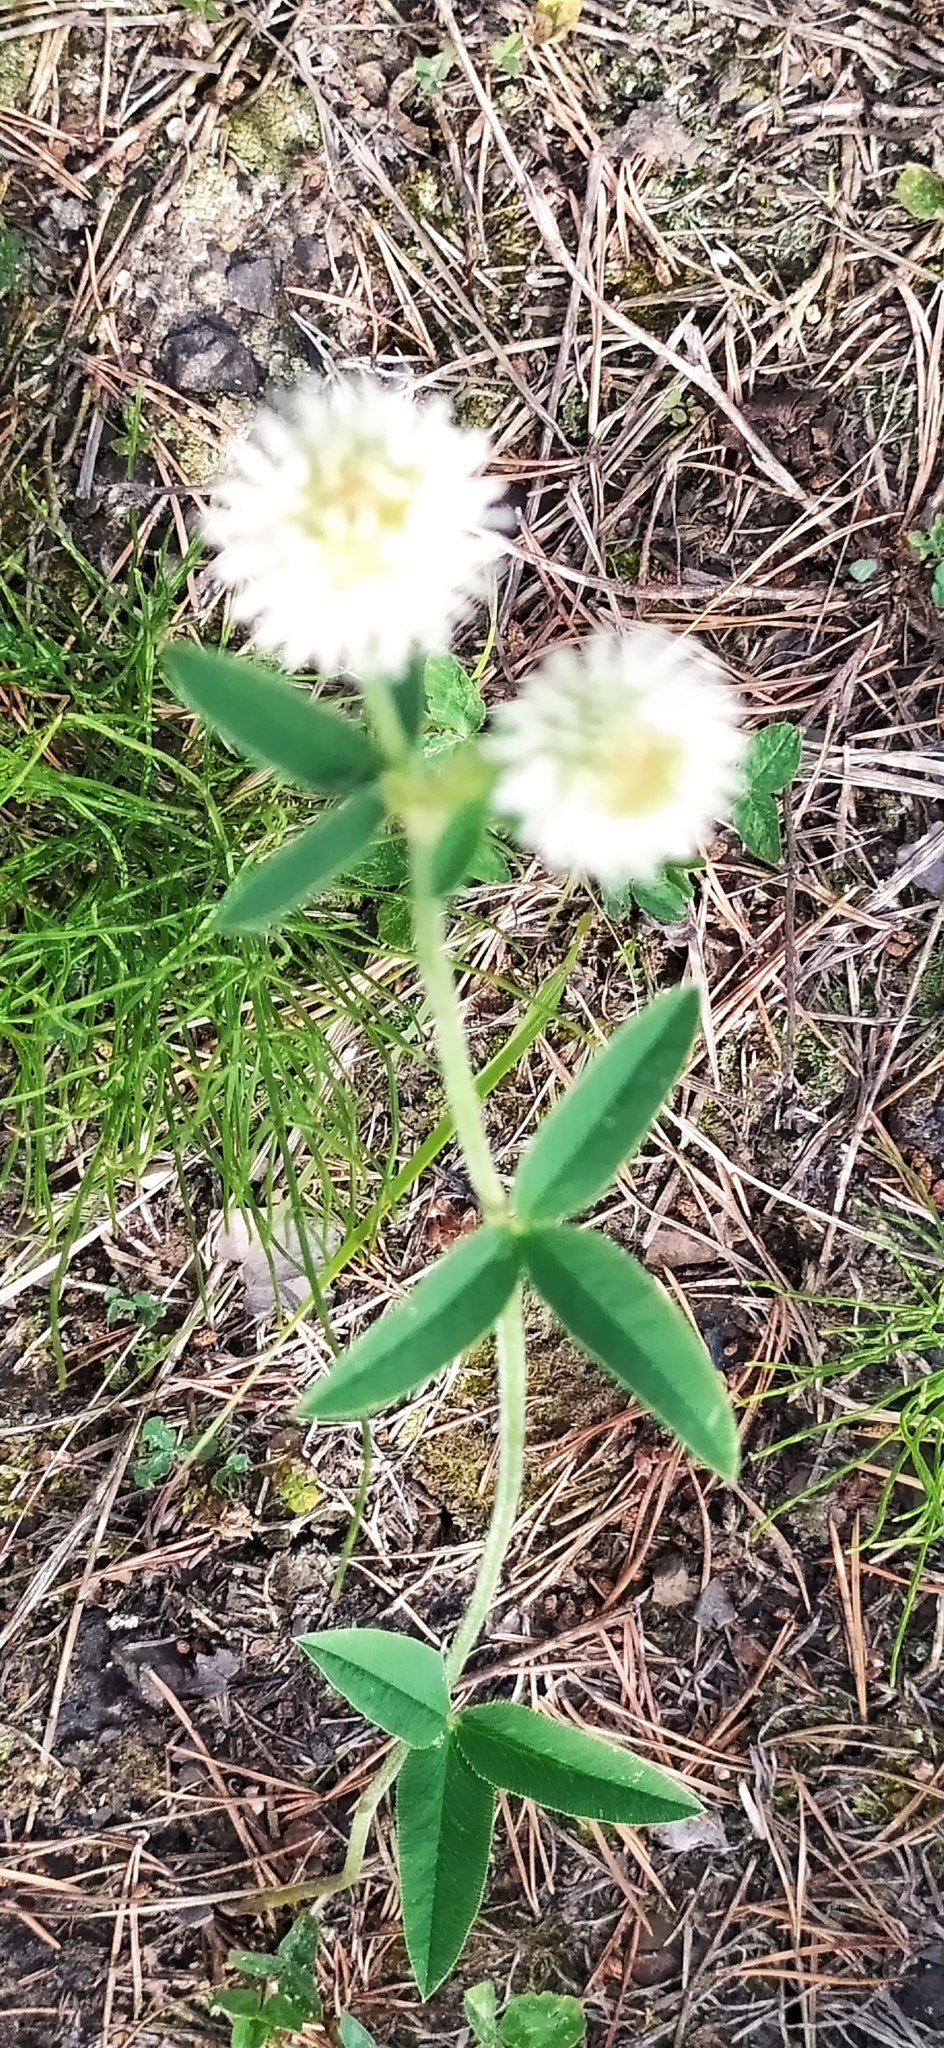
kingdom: Plantae
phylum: Tracheophyta
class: Magnoliopsida
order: Fabales
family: Fabaceae
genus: Trifolium
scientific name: Trifolium montanum
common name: Mountain clover
